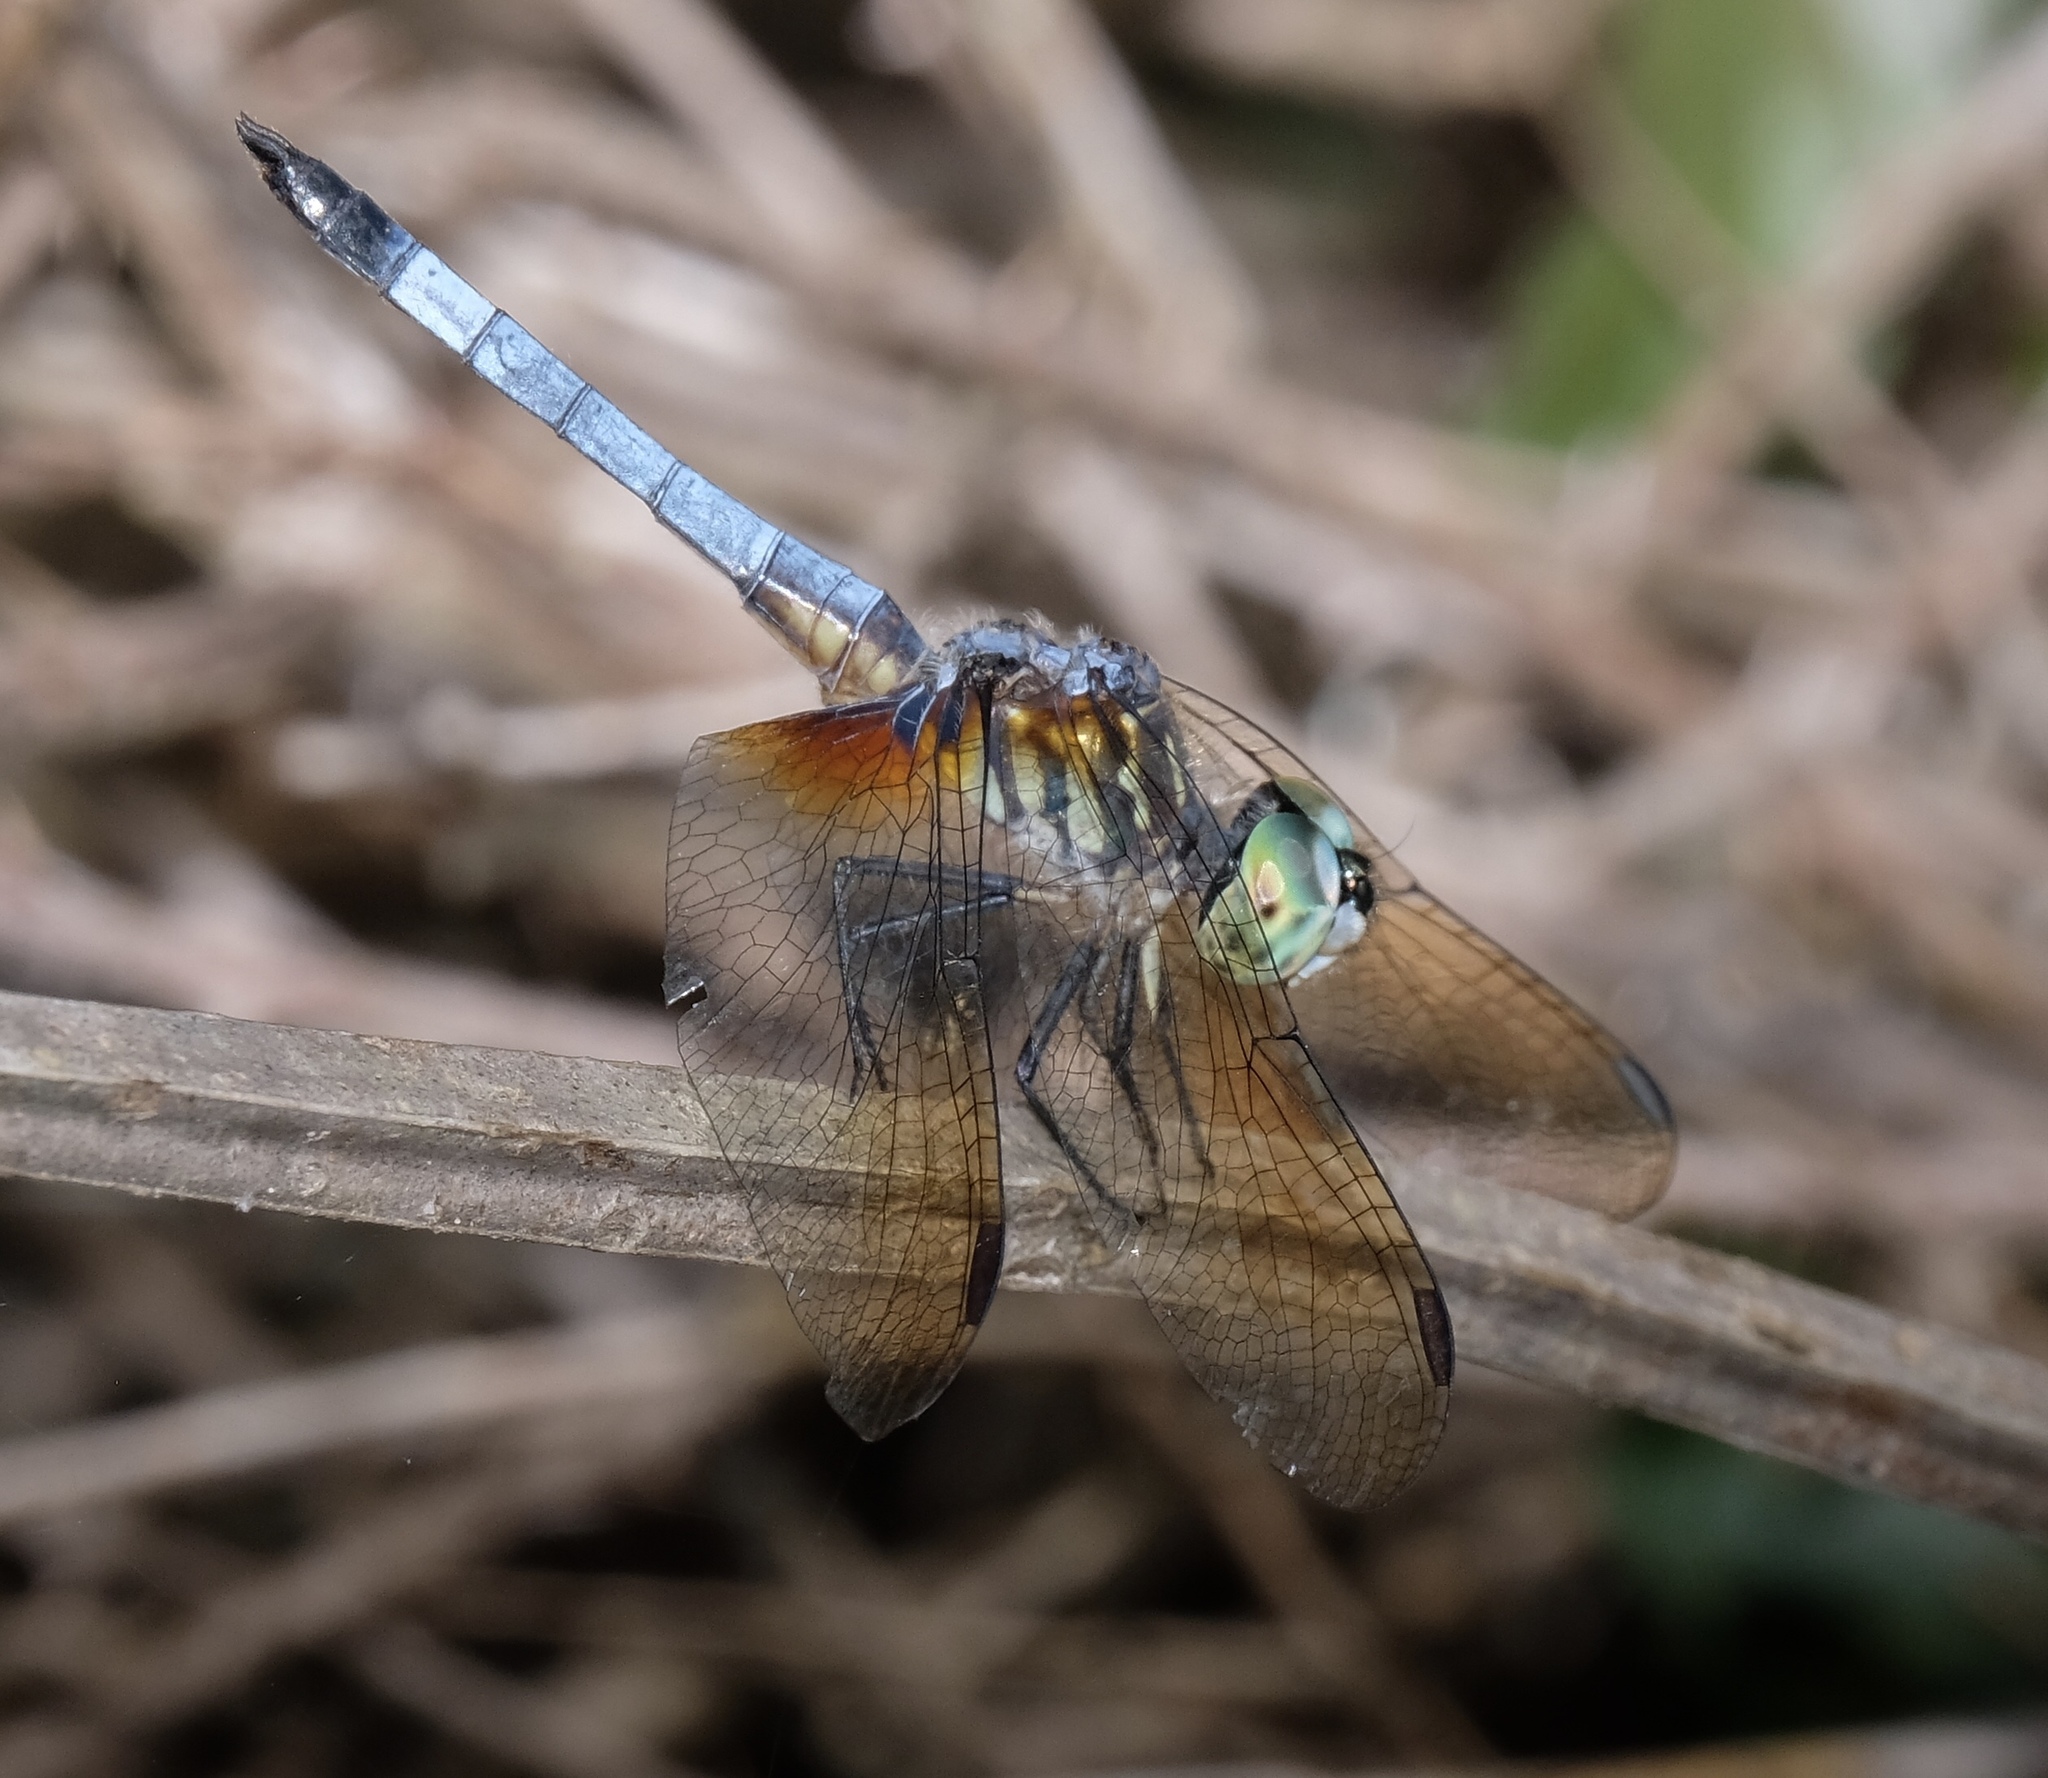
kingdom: Animalia
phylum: Arthropoda
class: Insecta
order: Odonata
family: Libellulidae
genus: Pachydiplax
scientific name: Pachydiplax longipennis
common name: Blue dasher
